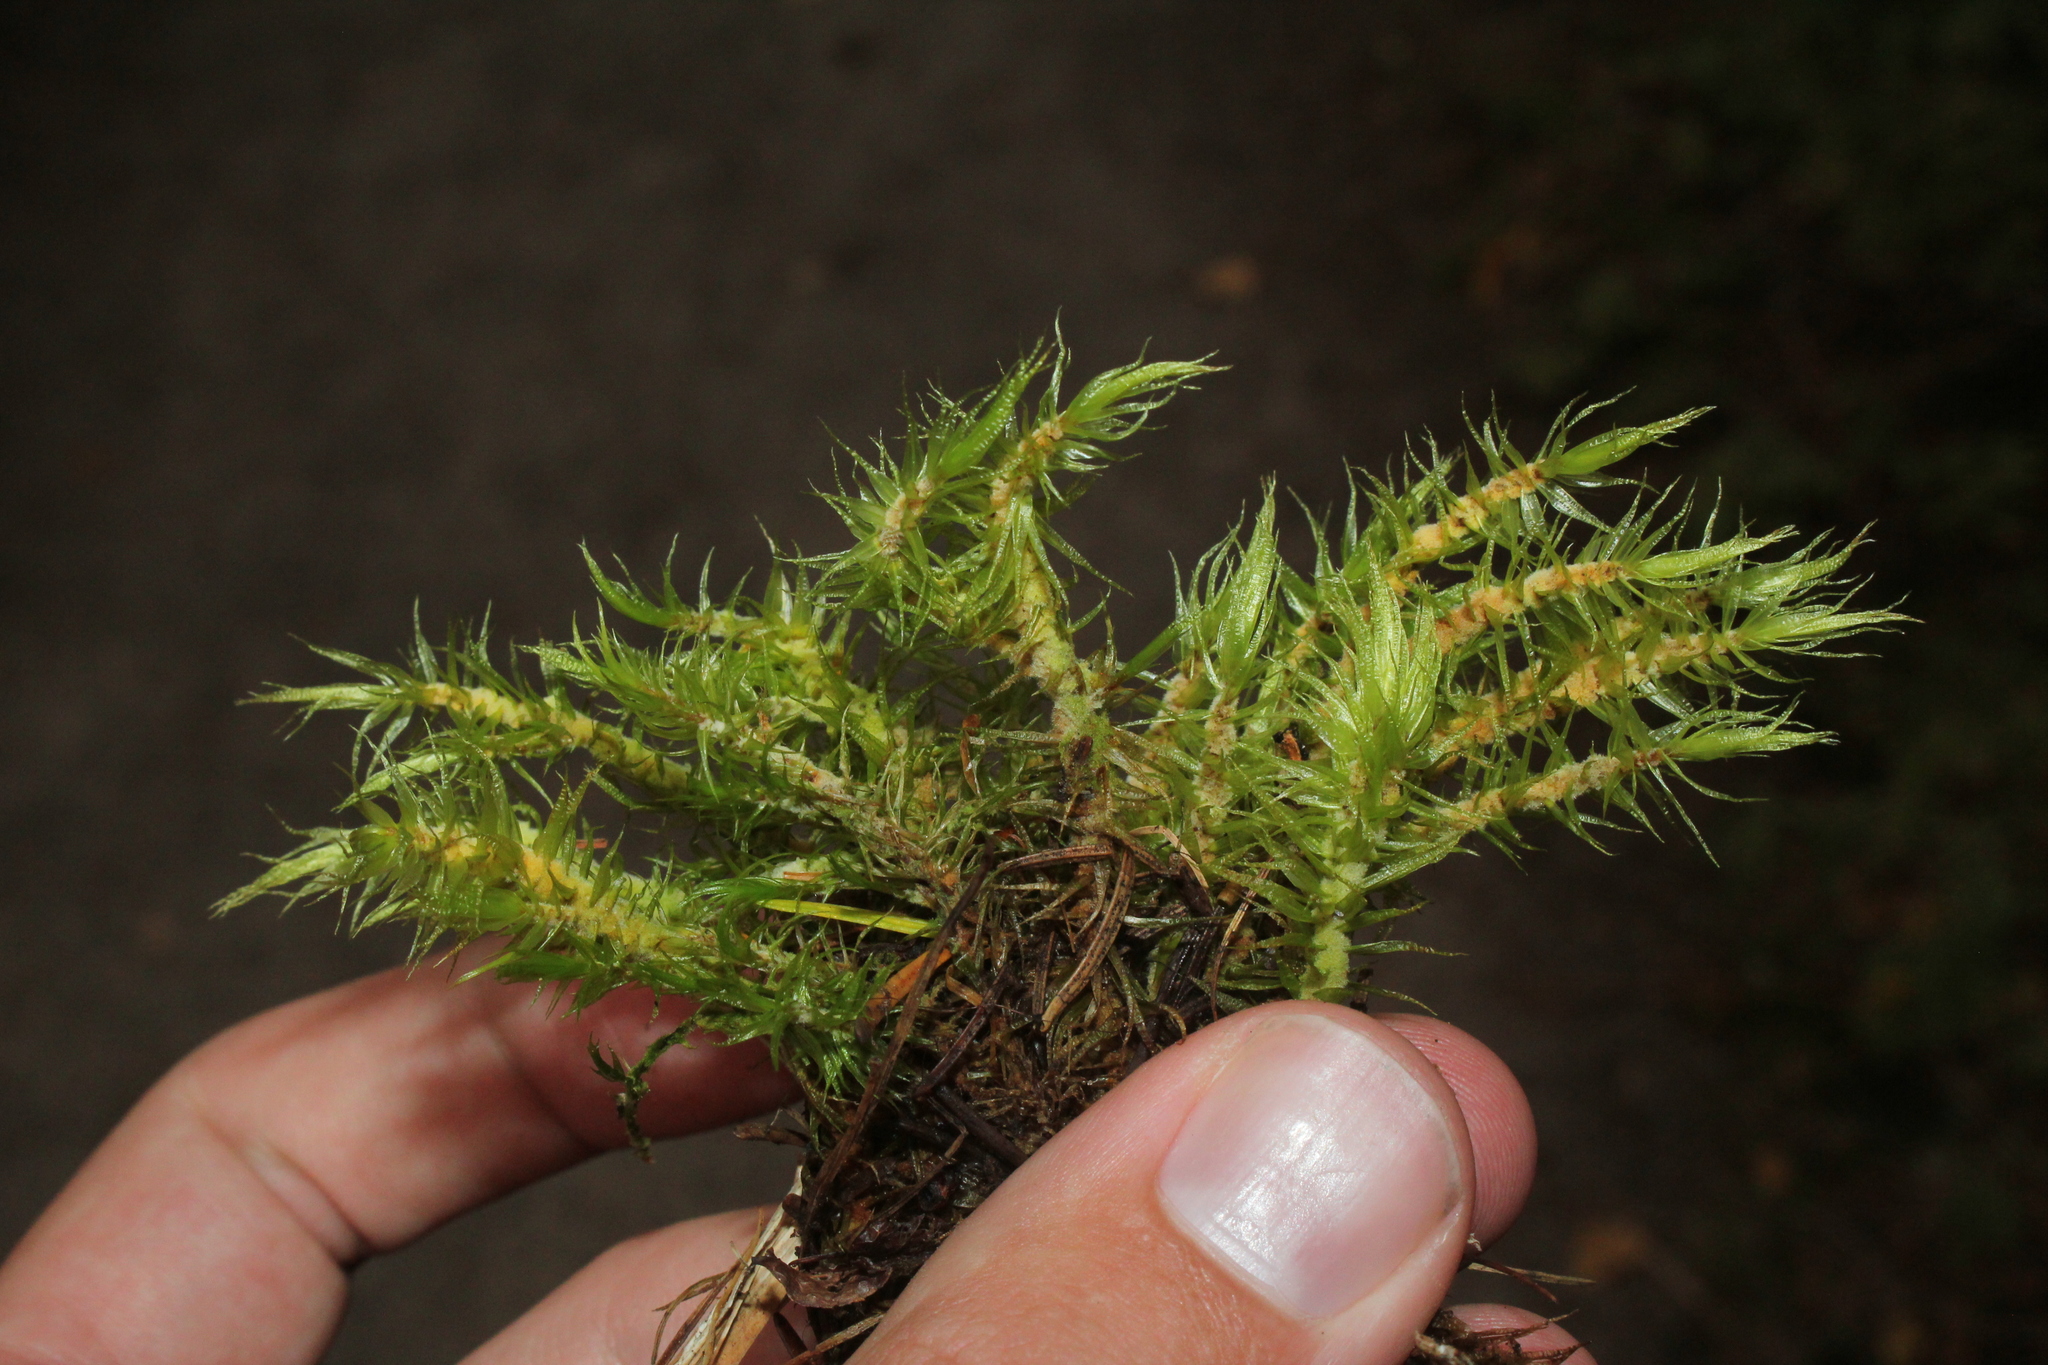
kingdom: Plantae
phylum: Bryophyta
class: Bryopsida
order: Dicranales
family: Dicranaceae
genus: Dicranum
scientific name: Dicranum polysetum
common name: Rugose fork-moss
